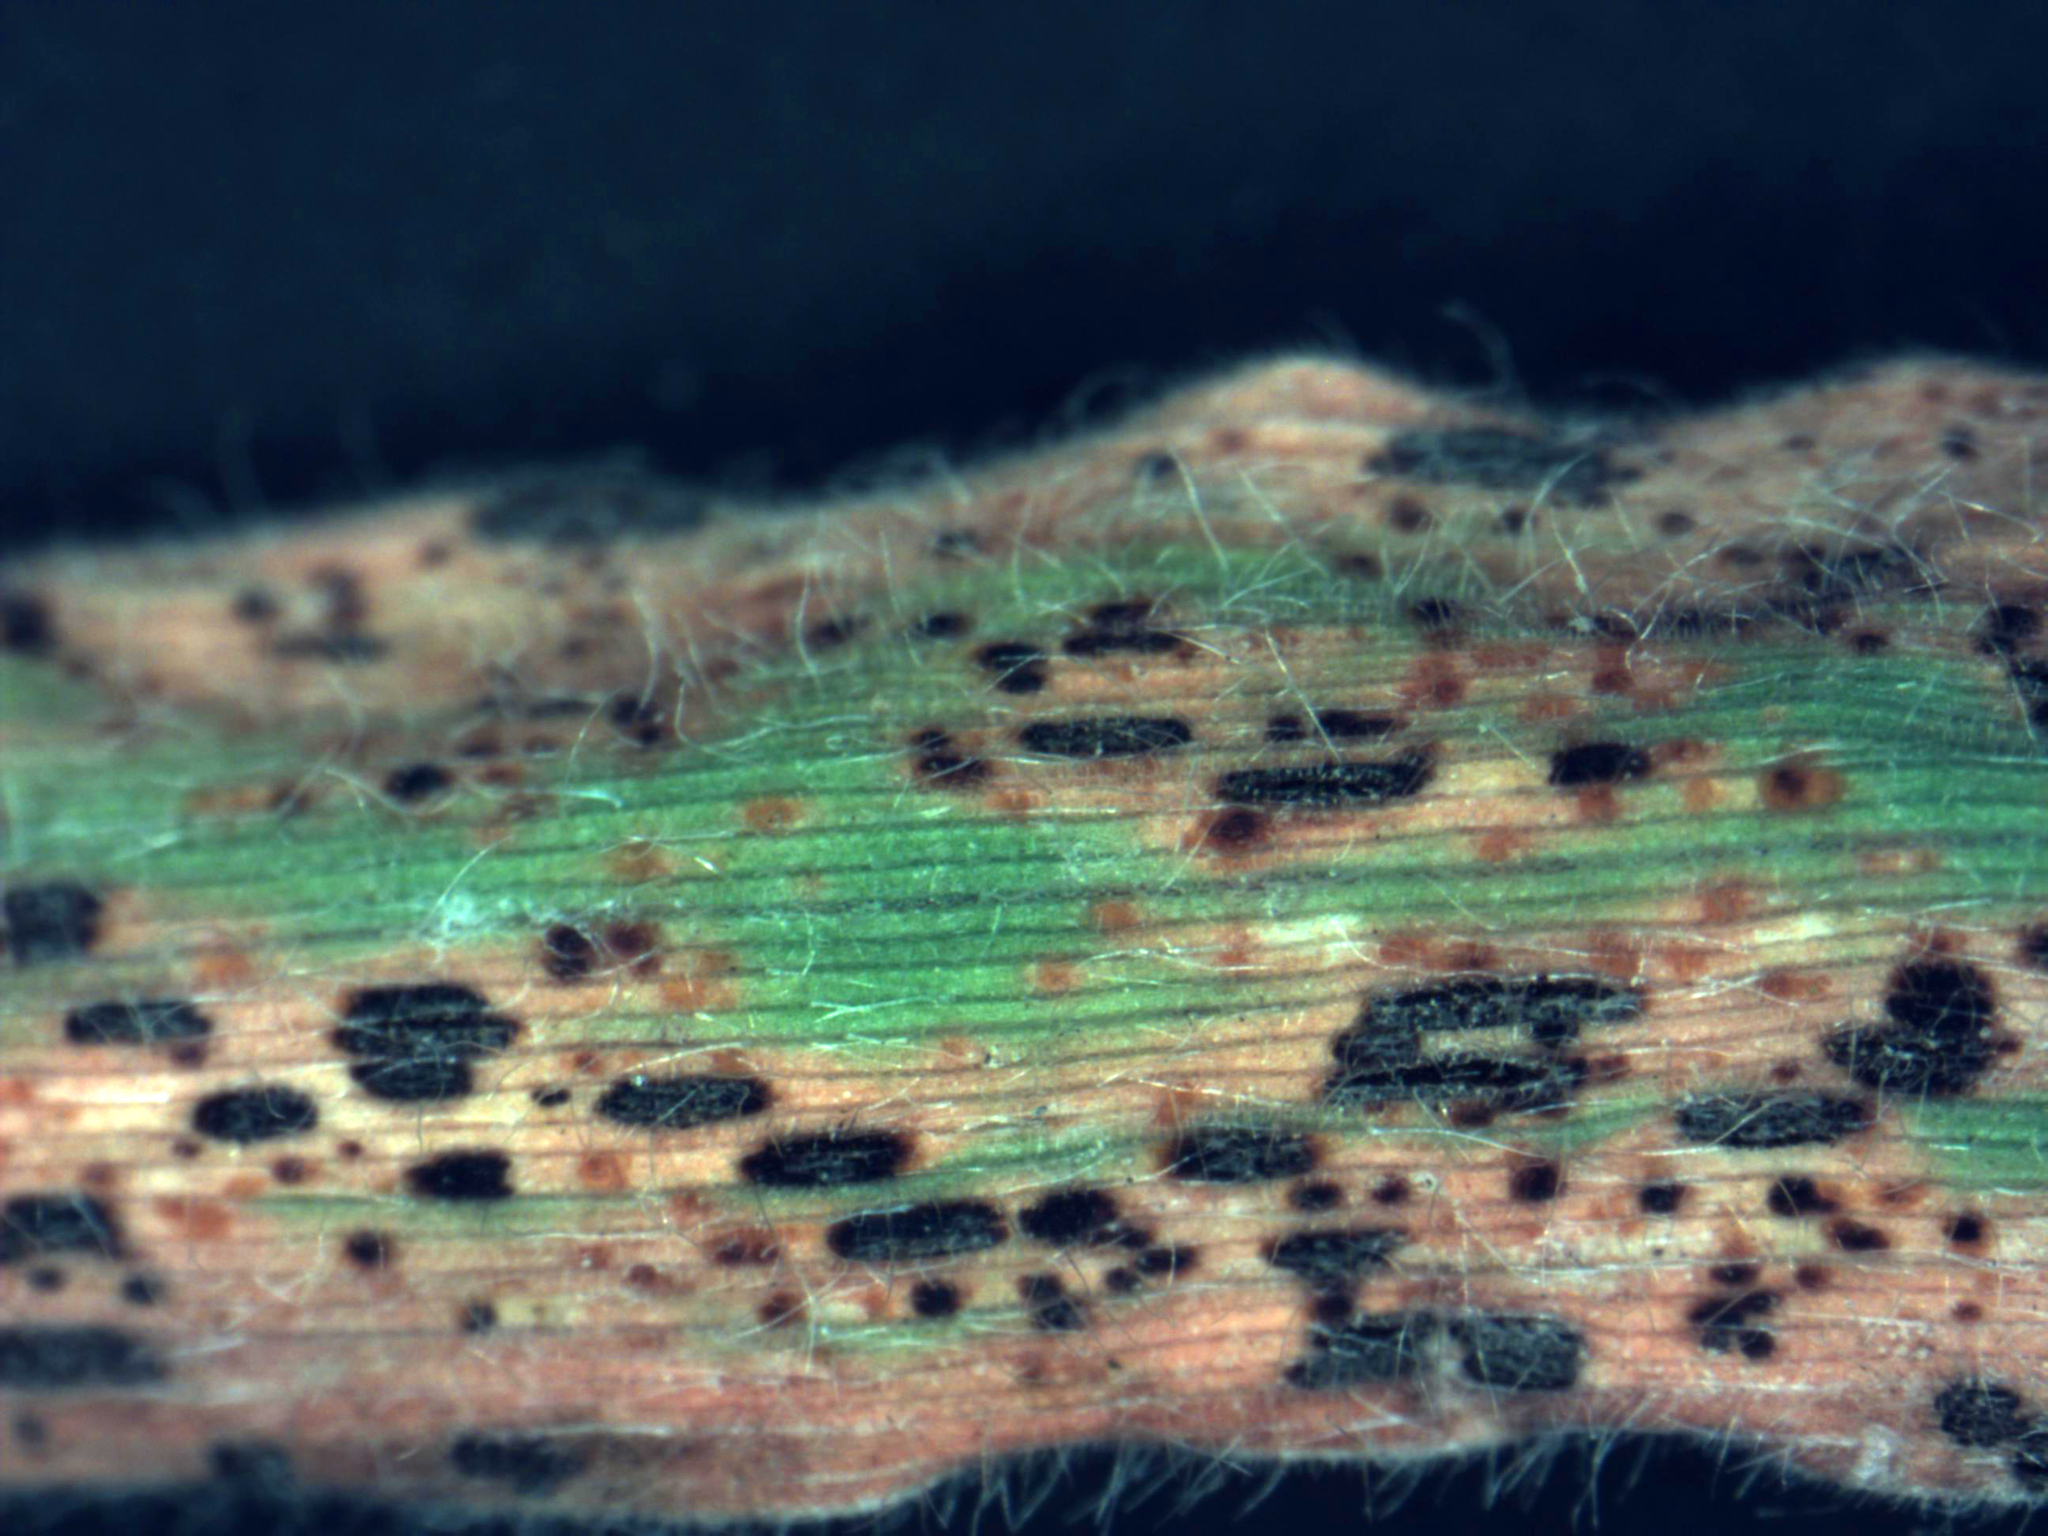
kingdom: Fungi
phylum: Basidiomycota
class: Pucciniomycetes
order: Pucciniales
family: Pucciniaceae
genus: Puccinia
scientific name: Puccinia hordei
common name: Barley leaf rust
